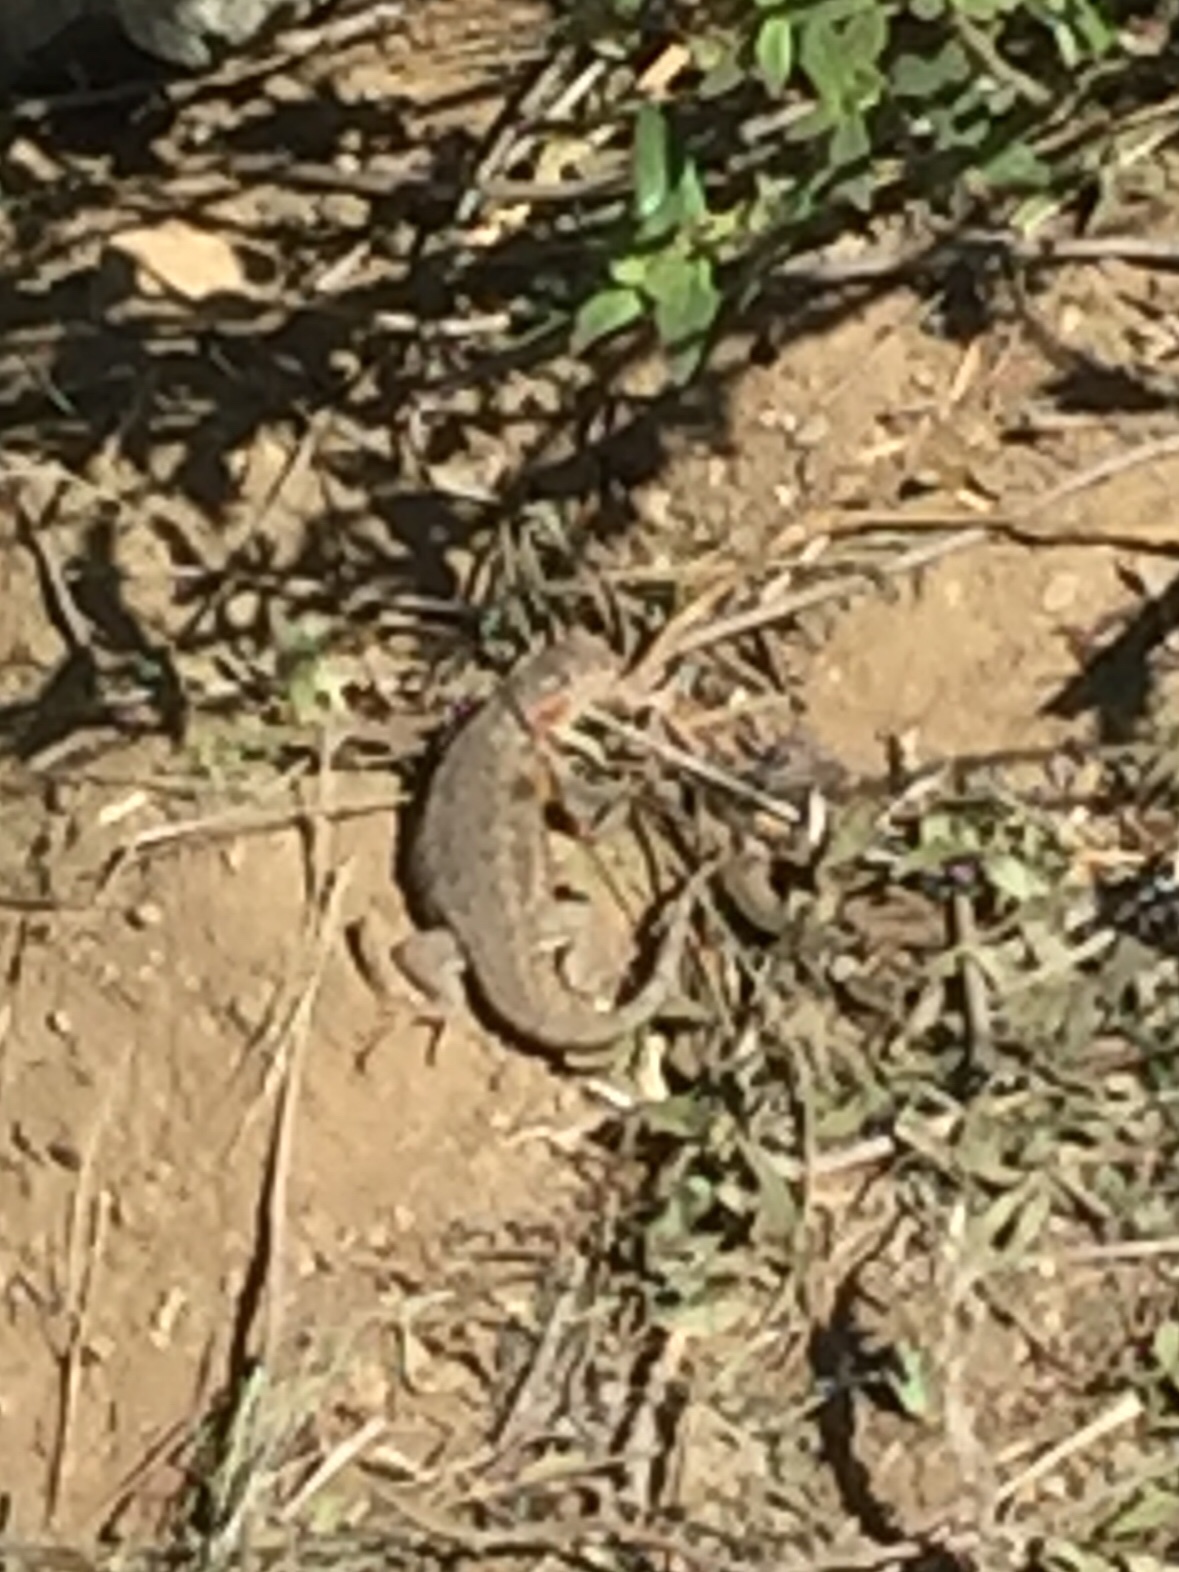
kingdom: Animalia
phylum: Chordata
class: Squamata
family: Phrynosomatidae
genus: Sceloporus
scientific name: Sceloporus graciosus
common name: Sagebrush lizard
